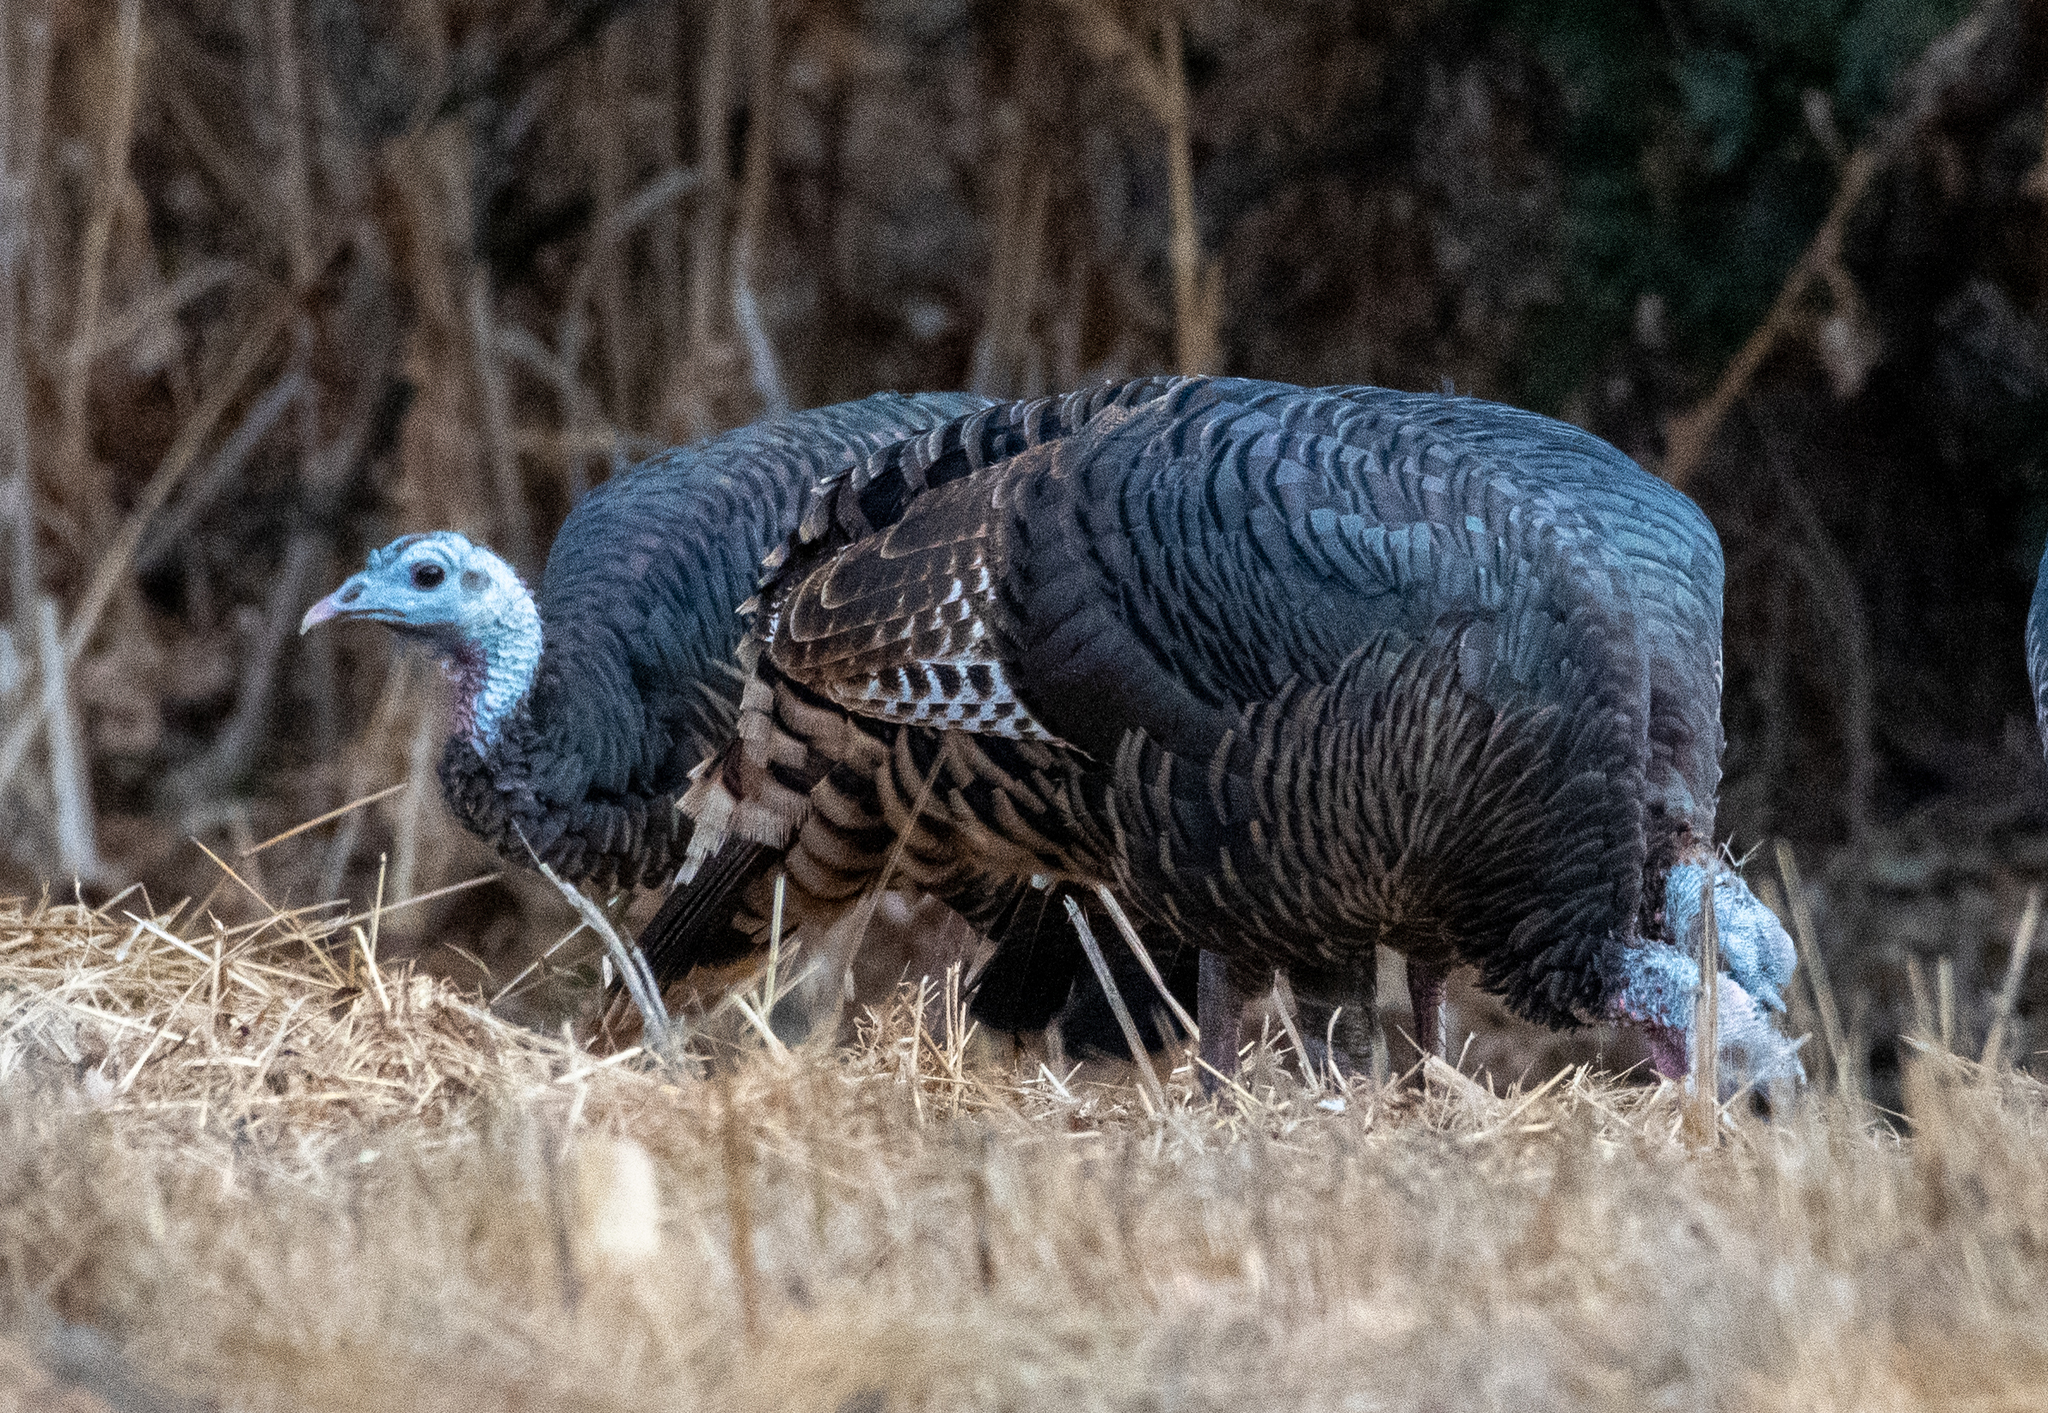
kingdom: Animalia
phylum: Chordata
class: Aves
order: Galliformes
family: Phasianidae
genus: Meleagris
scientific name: Meleagris gallopavo
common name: Wild turkey
